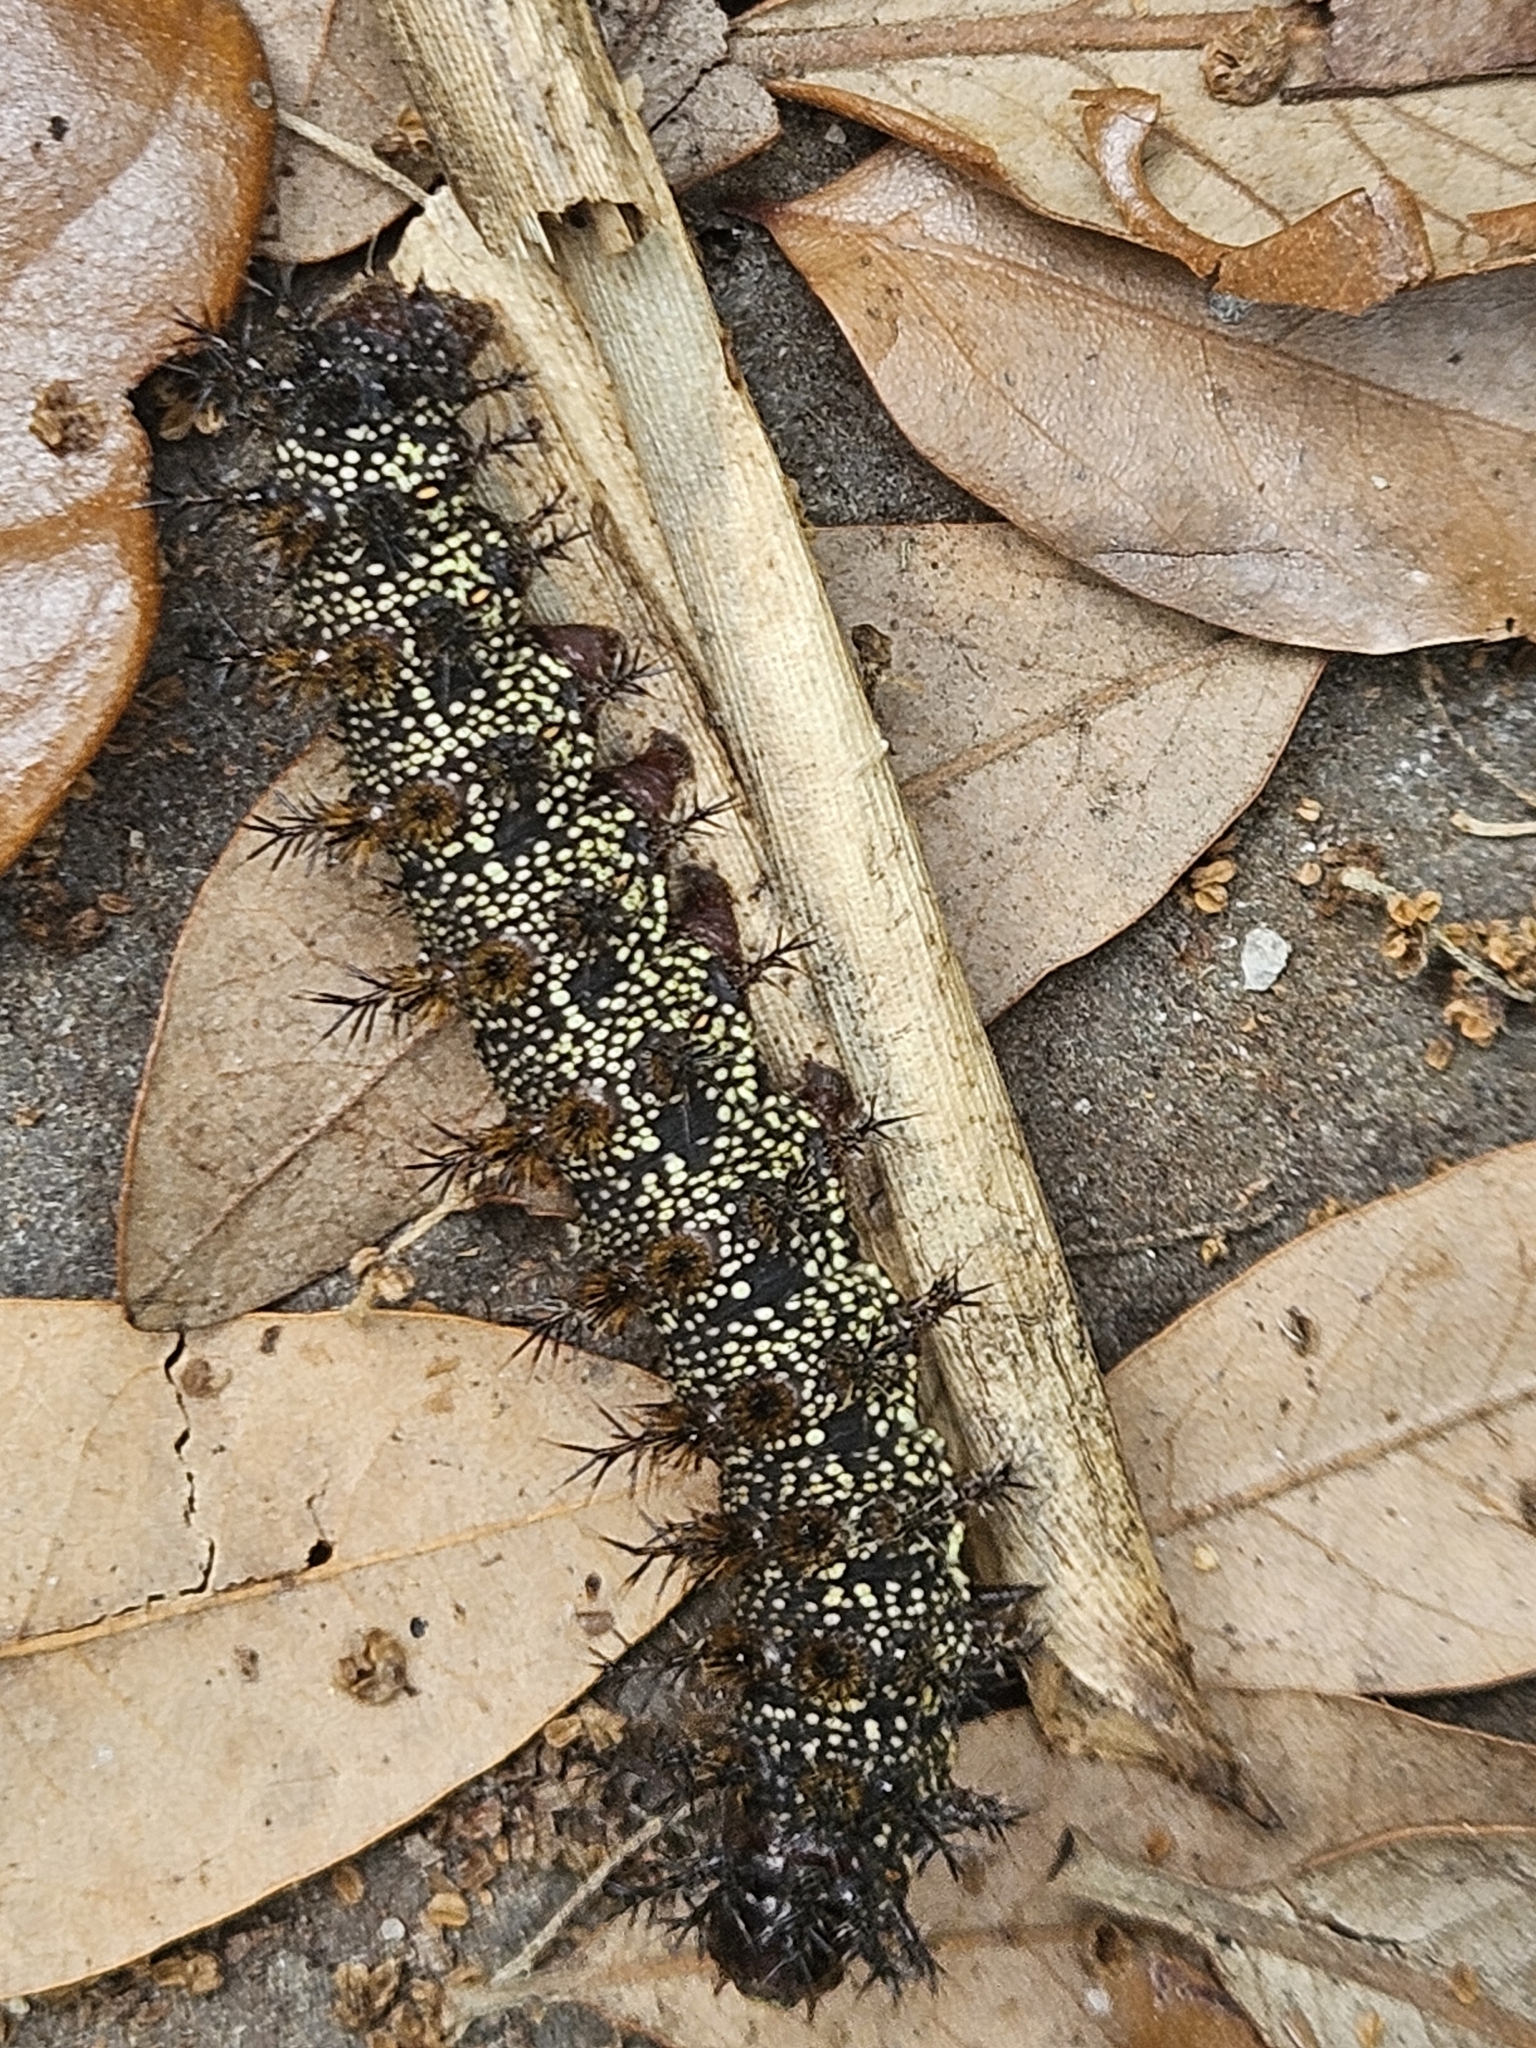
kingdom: Animalia
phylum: Arthropoda
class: Insecta
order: Lepidoptera
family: Saturniidae
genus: Hemileuca
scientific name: Hemileuca maia
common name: Eastern buckmoth
